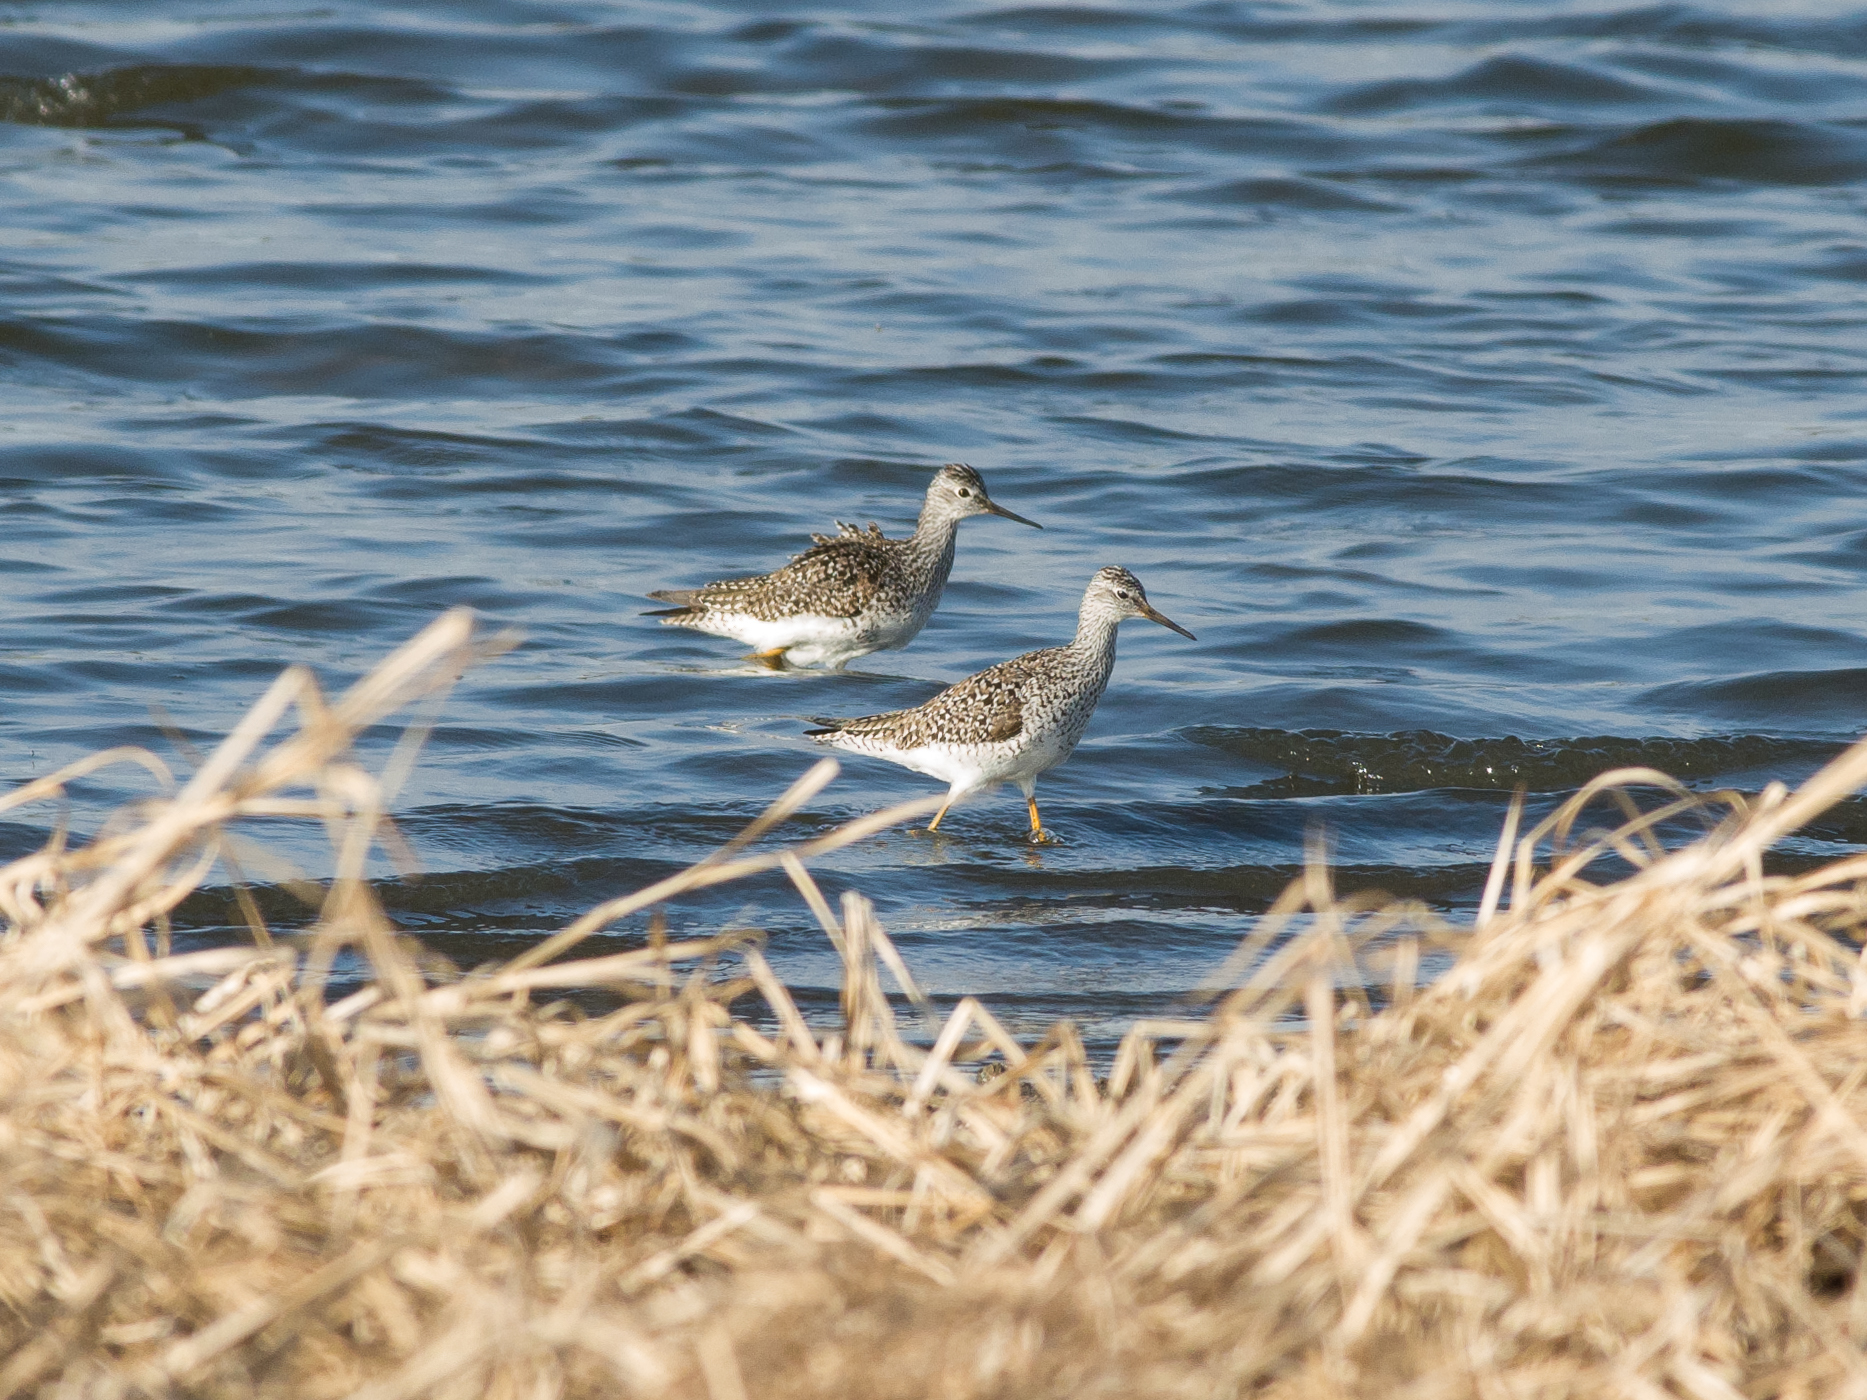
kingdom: Animalia
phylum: Chordata
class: Aves
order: Charadriiformes
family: Scolopacidae
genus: Tringa
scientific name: Tringa flavipes
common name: Lesser yellowlegs
